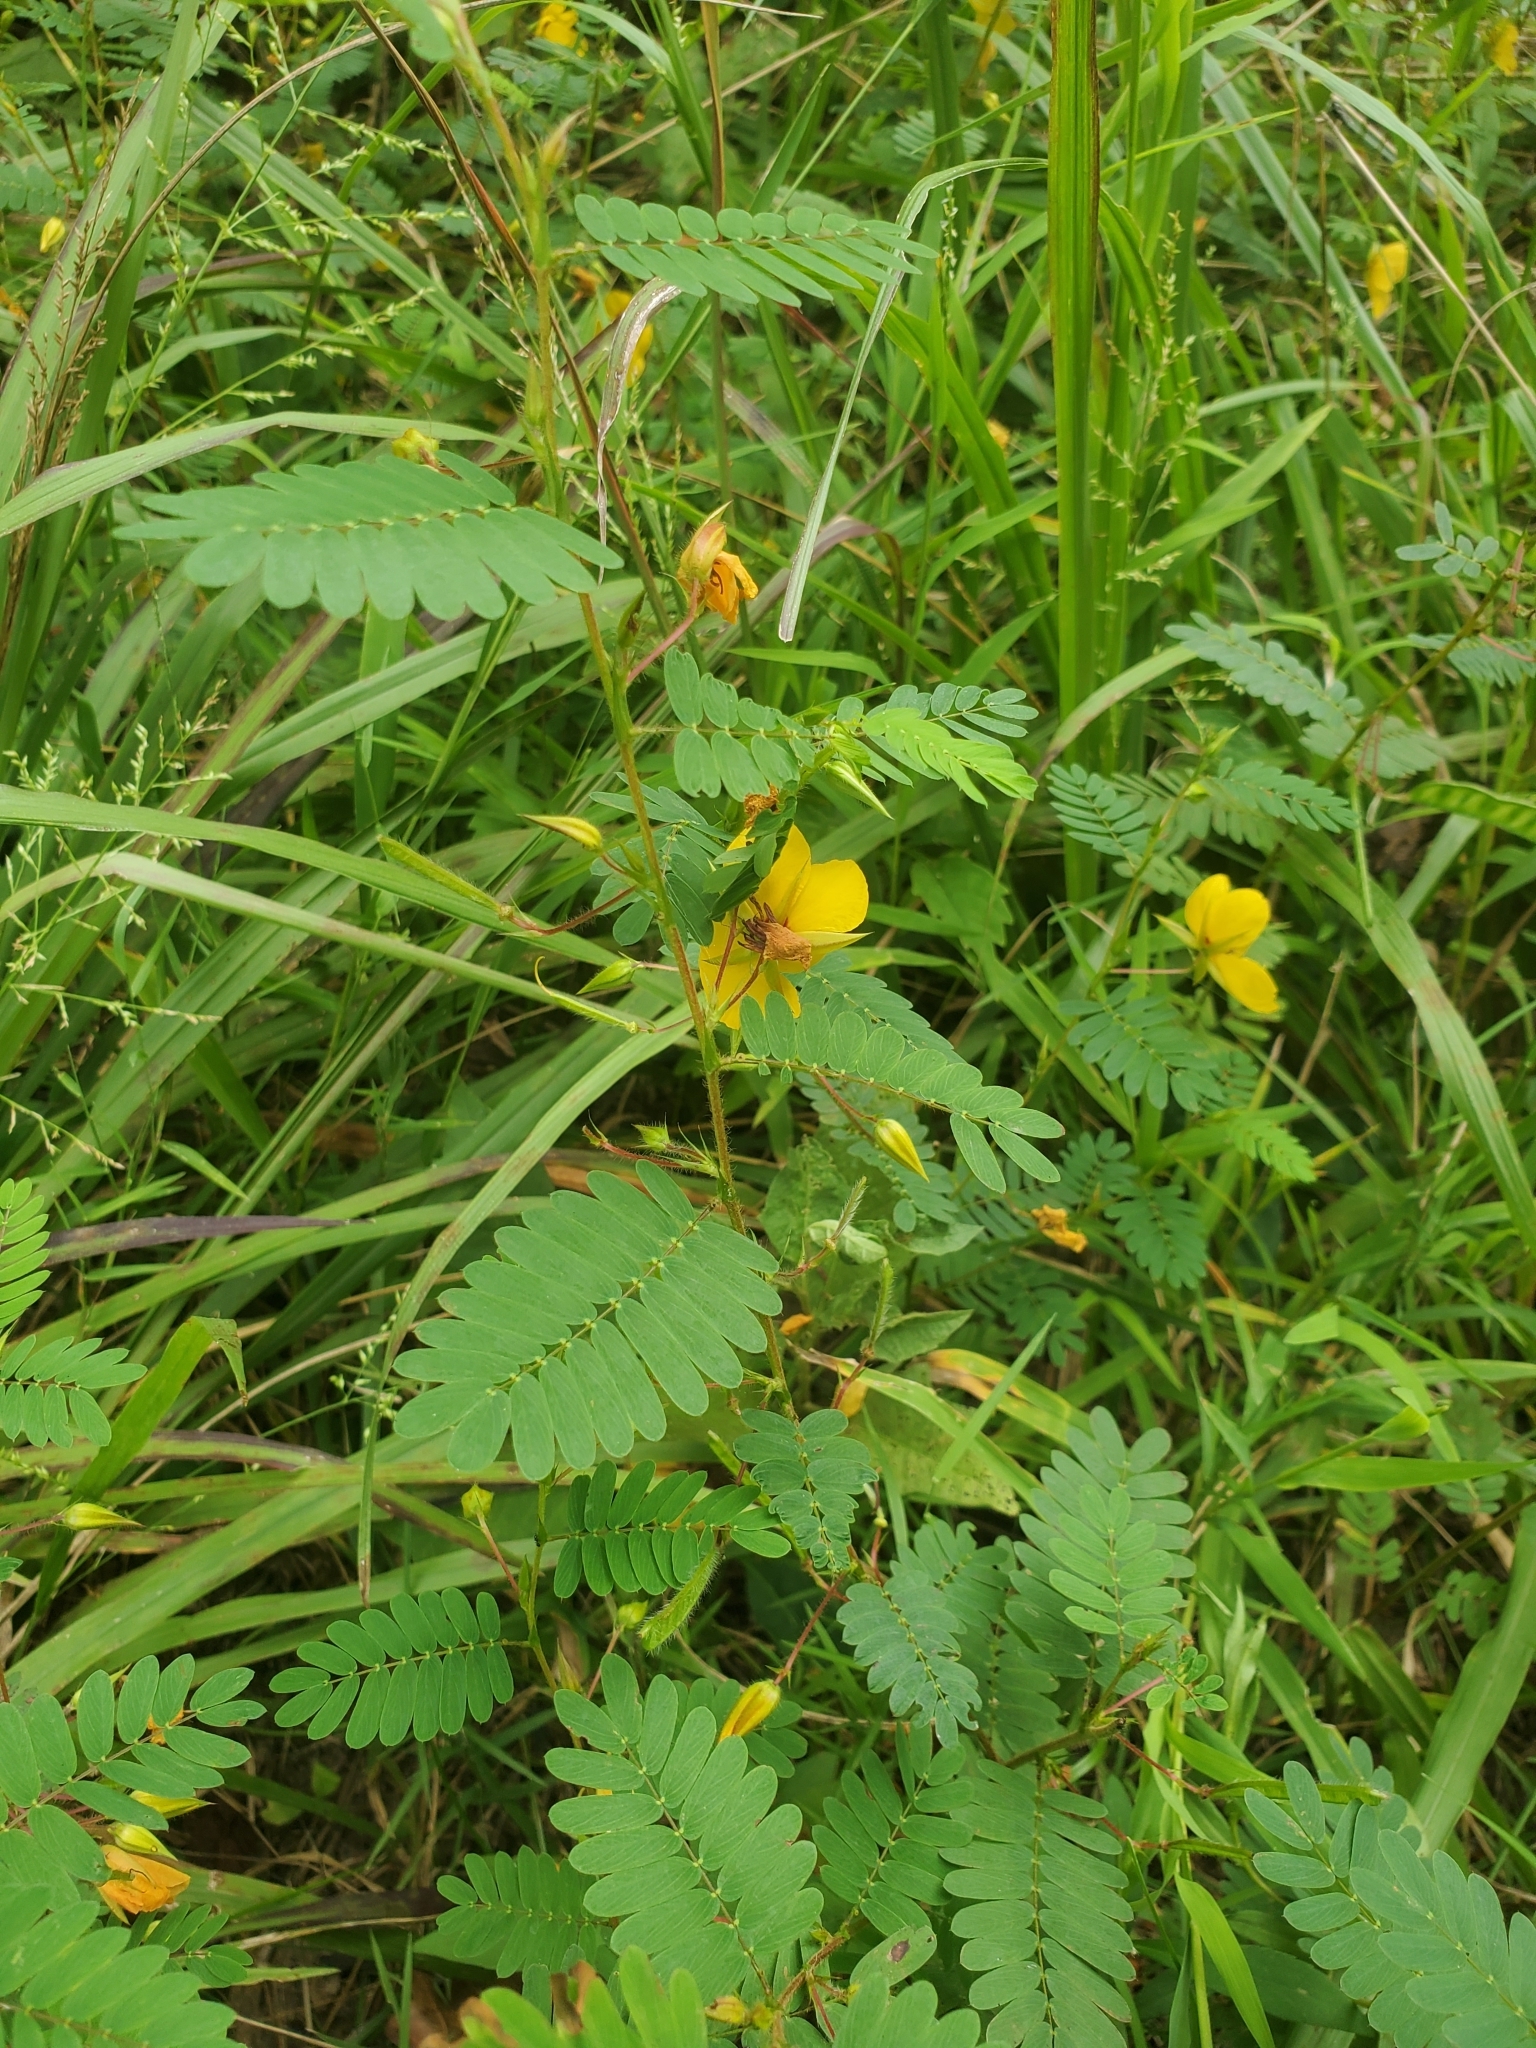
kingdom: Plantae
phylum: Tracheophyta
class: Magnoliopsida
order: Fabales
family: Fabaceae
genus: Chamaecrista
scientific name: Chamaecrista fasciculata
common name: Golden cassia
